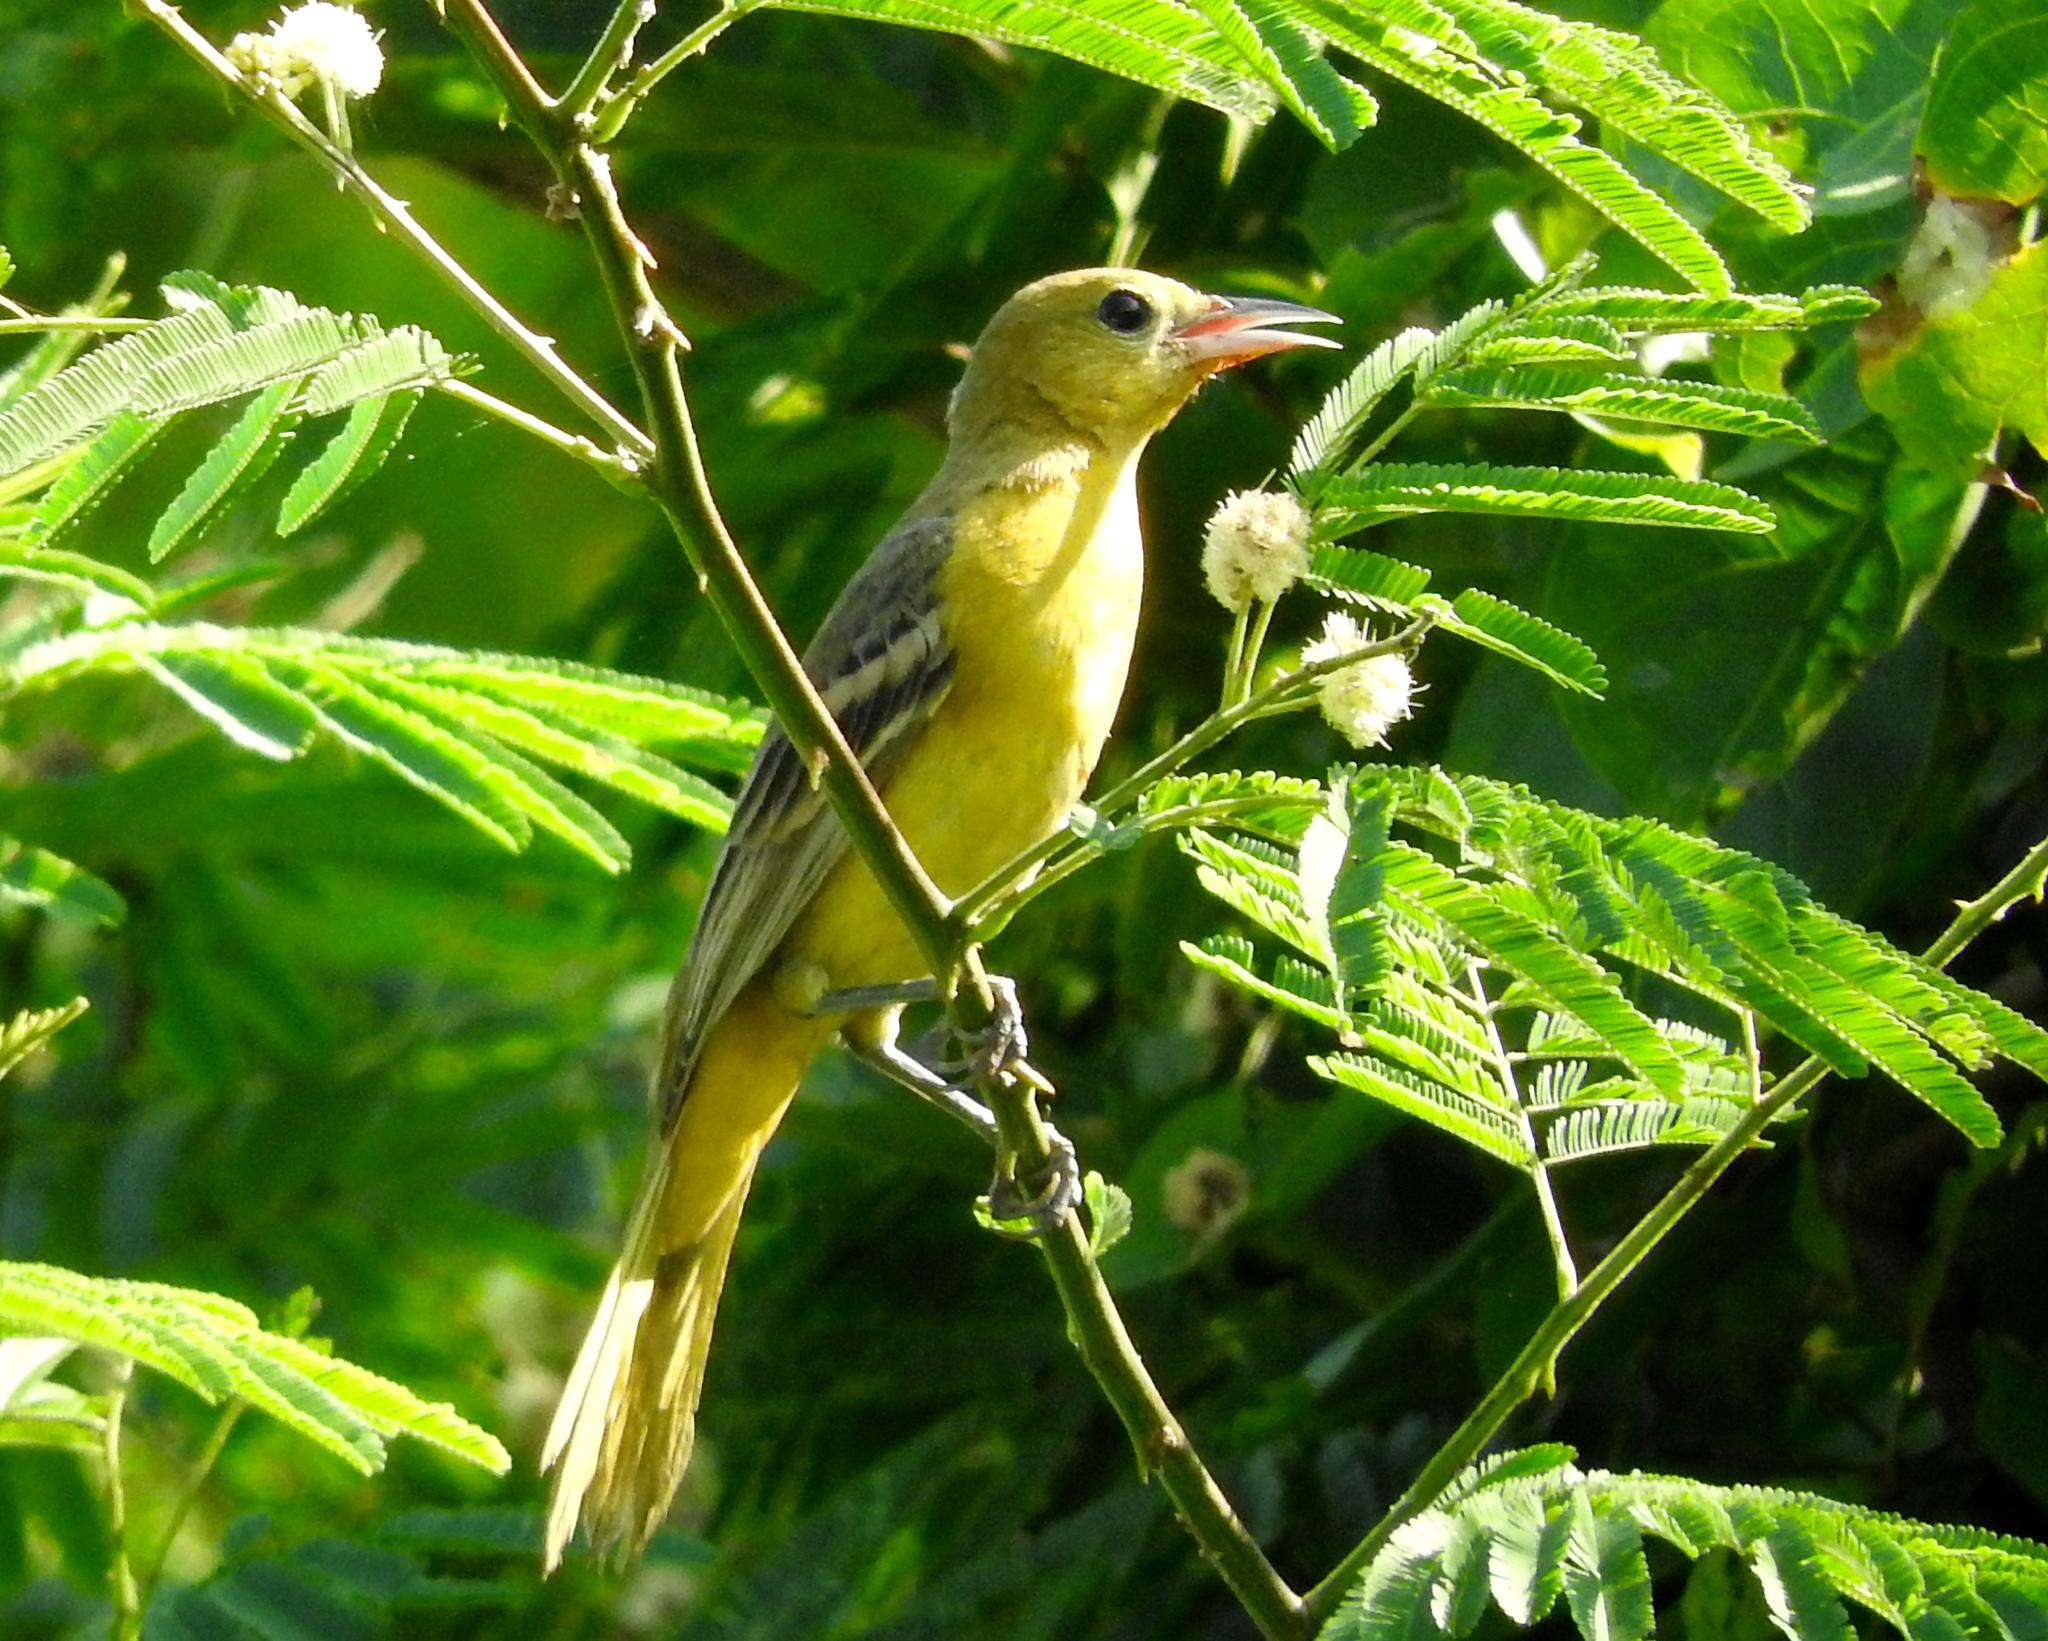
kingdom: Animalia
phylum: Chordata
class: Aves
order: Passeriformes
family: Icteridae
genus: Icterus
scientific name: Icterus
